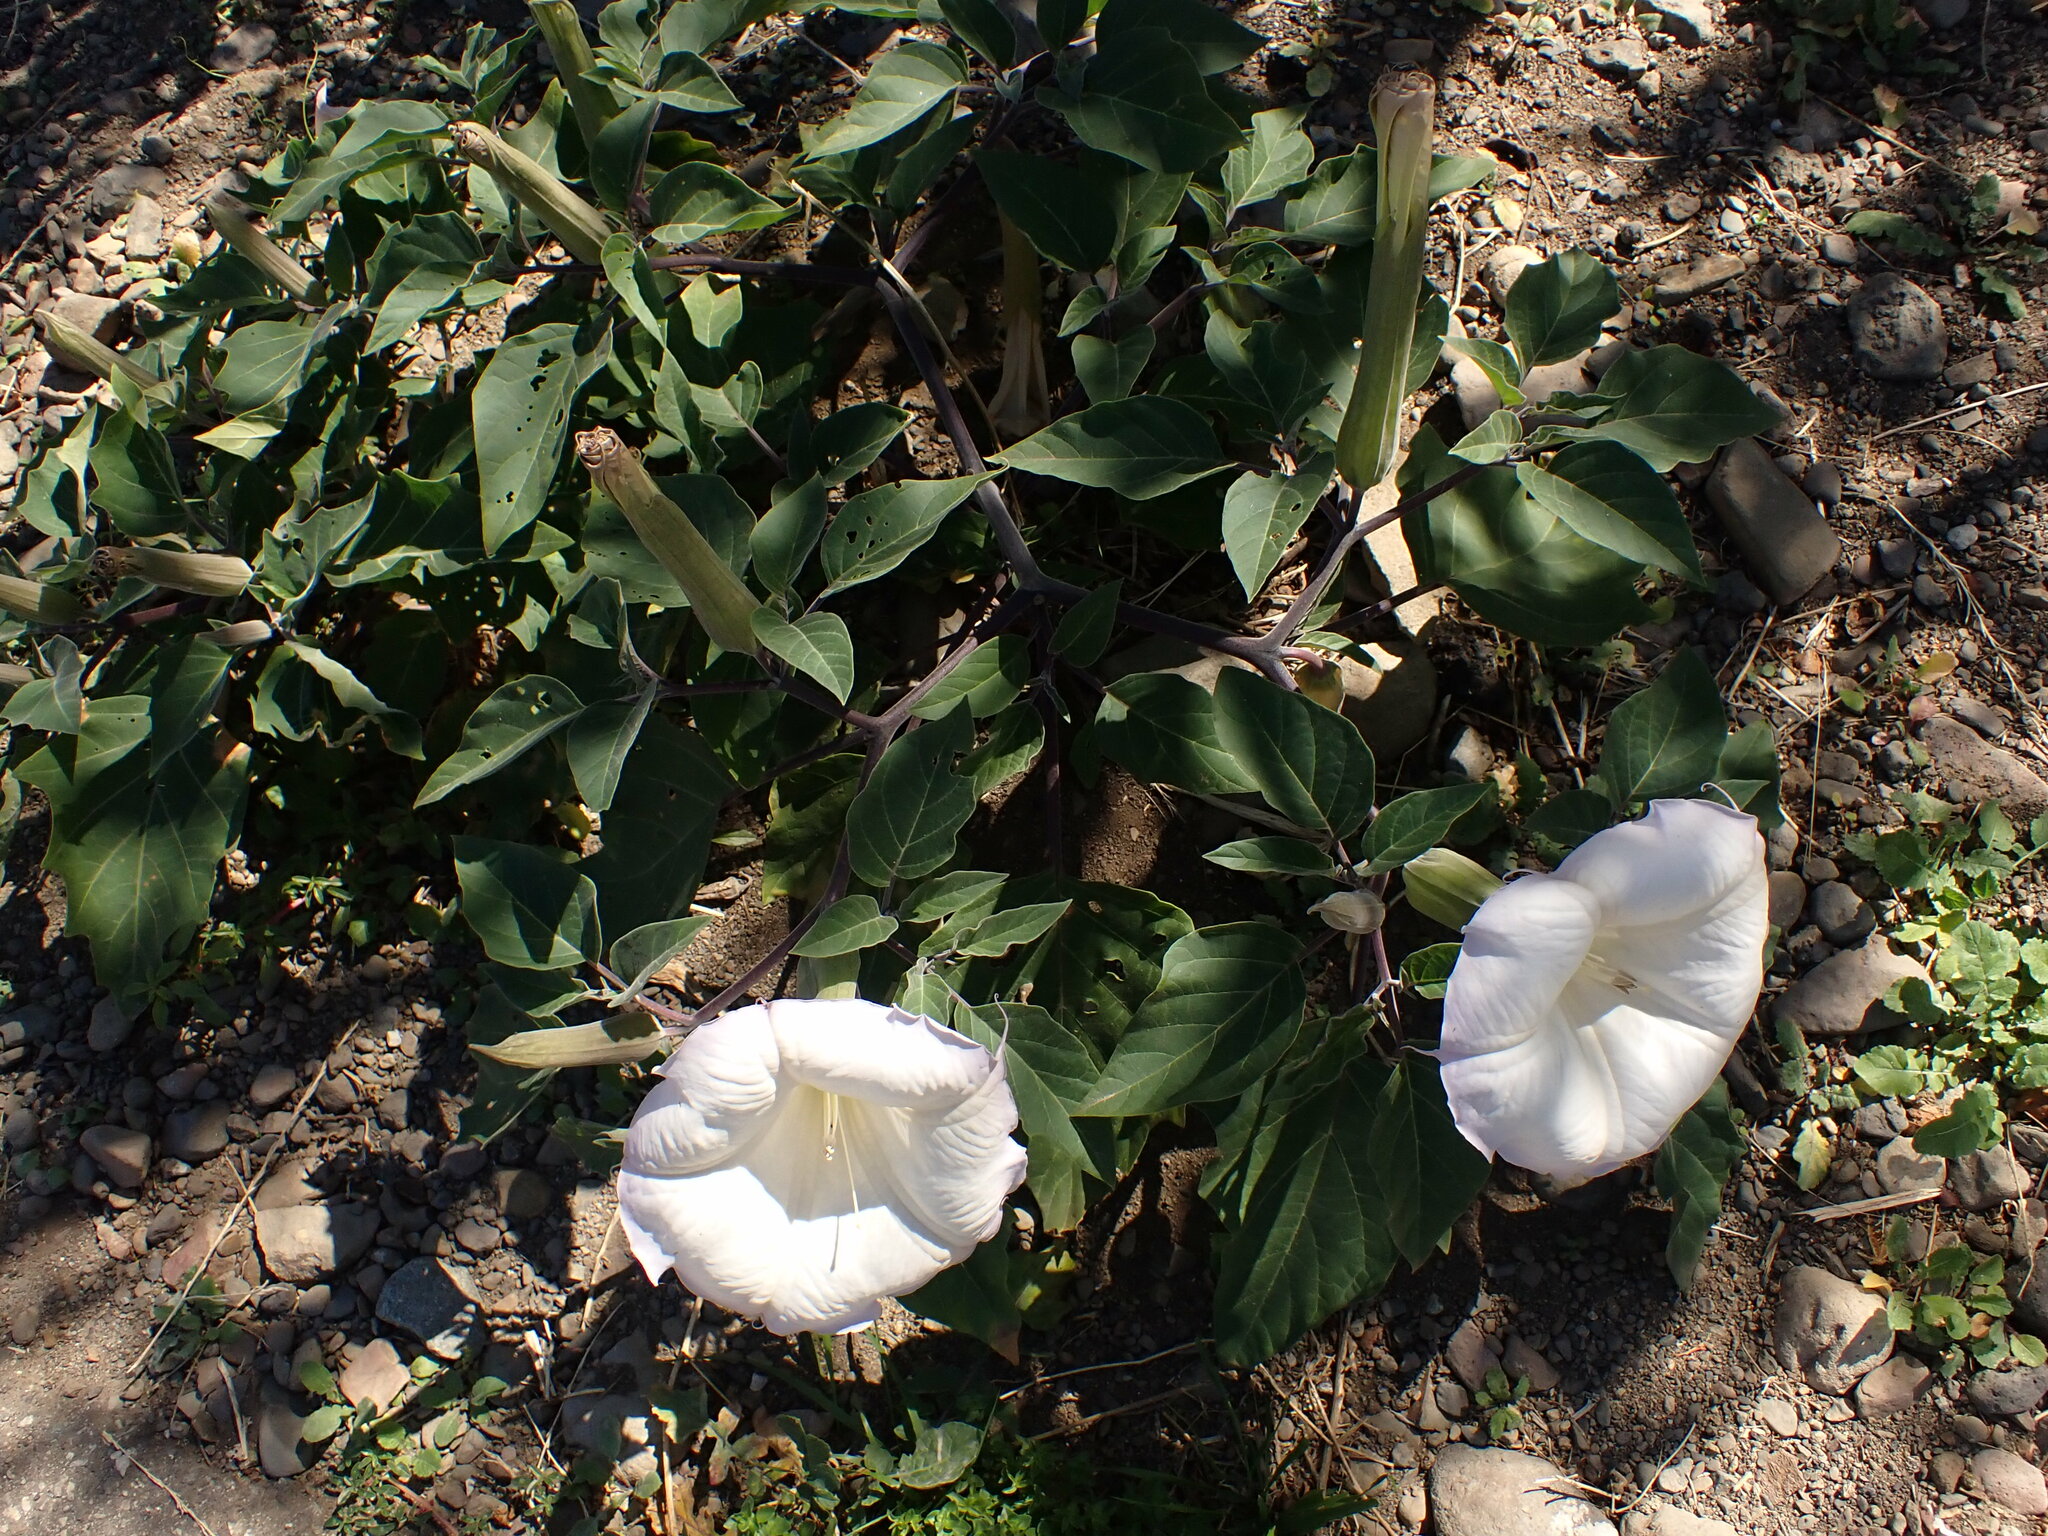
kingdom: Plantae
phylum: Tracheophyta
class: Magnoliopsida
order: Solanales
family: Solanaceae
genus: Datura
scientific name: Datura wrightii
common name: Sacred thorn-apple
